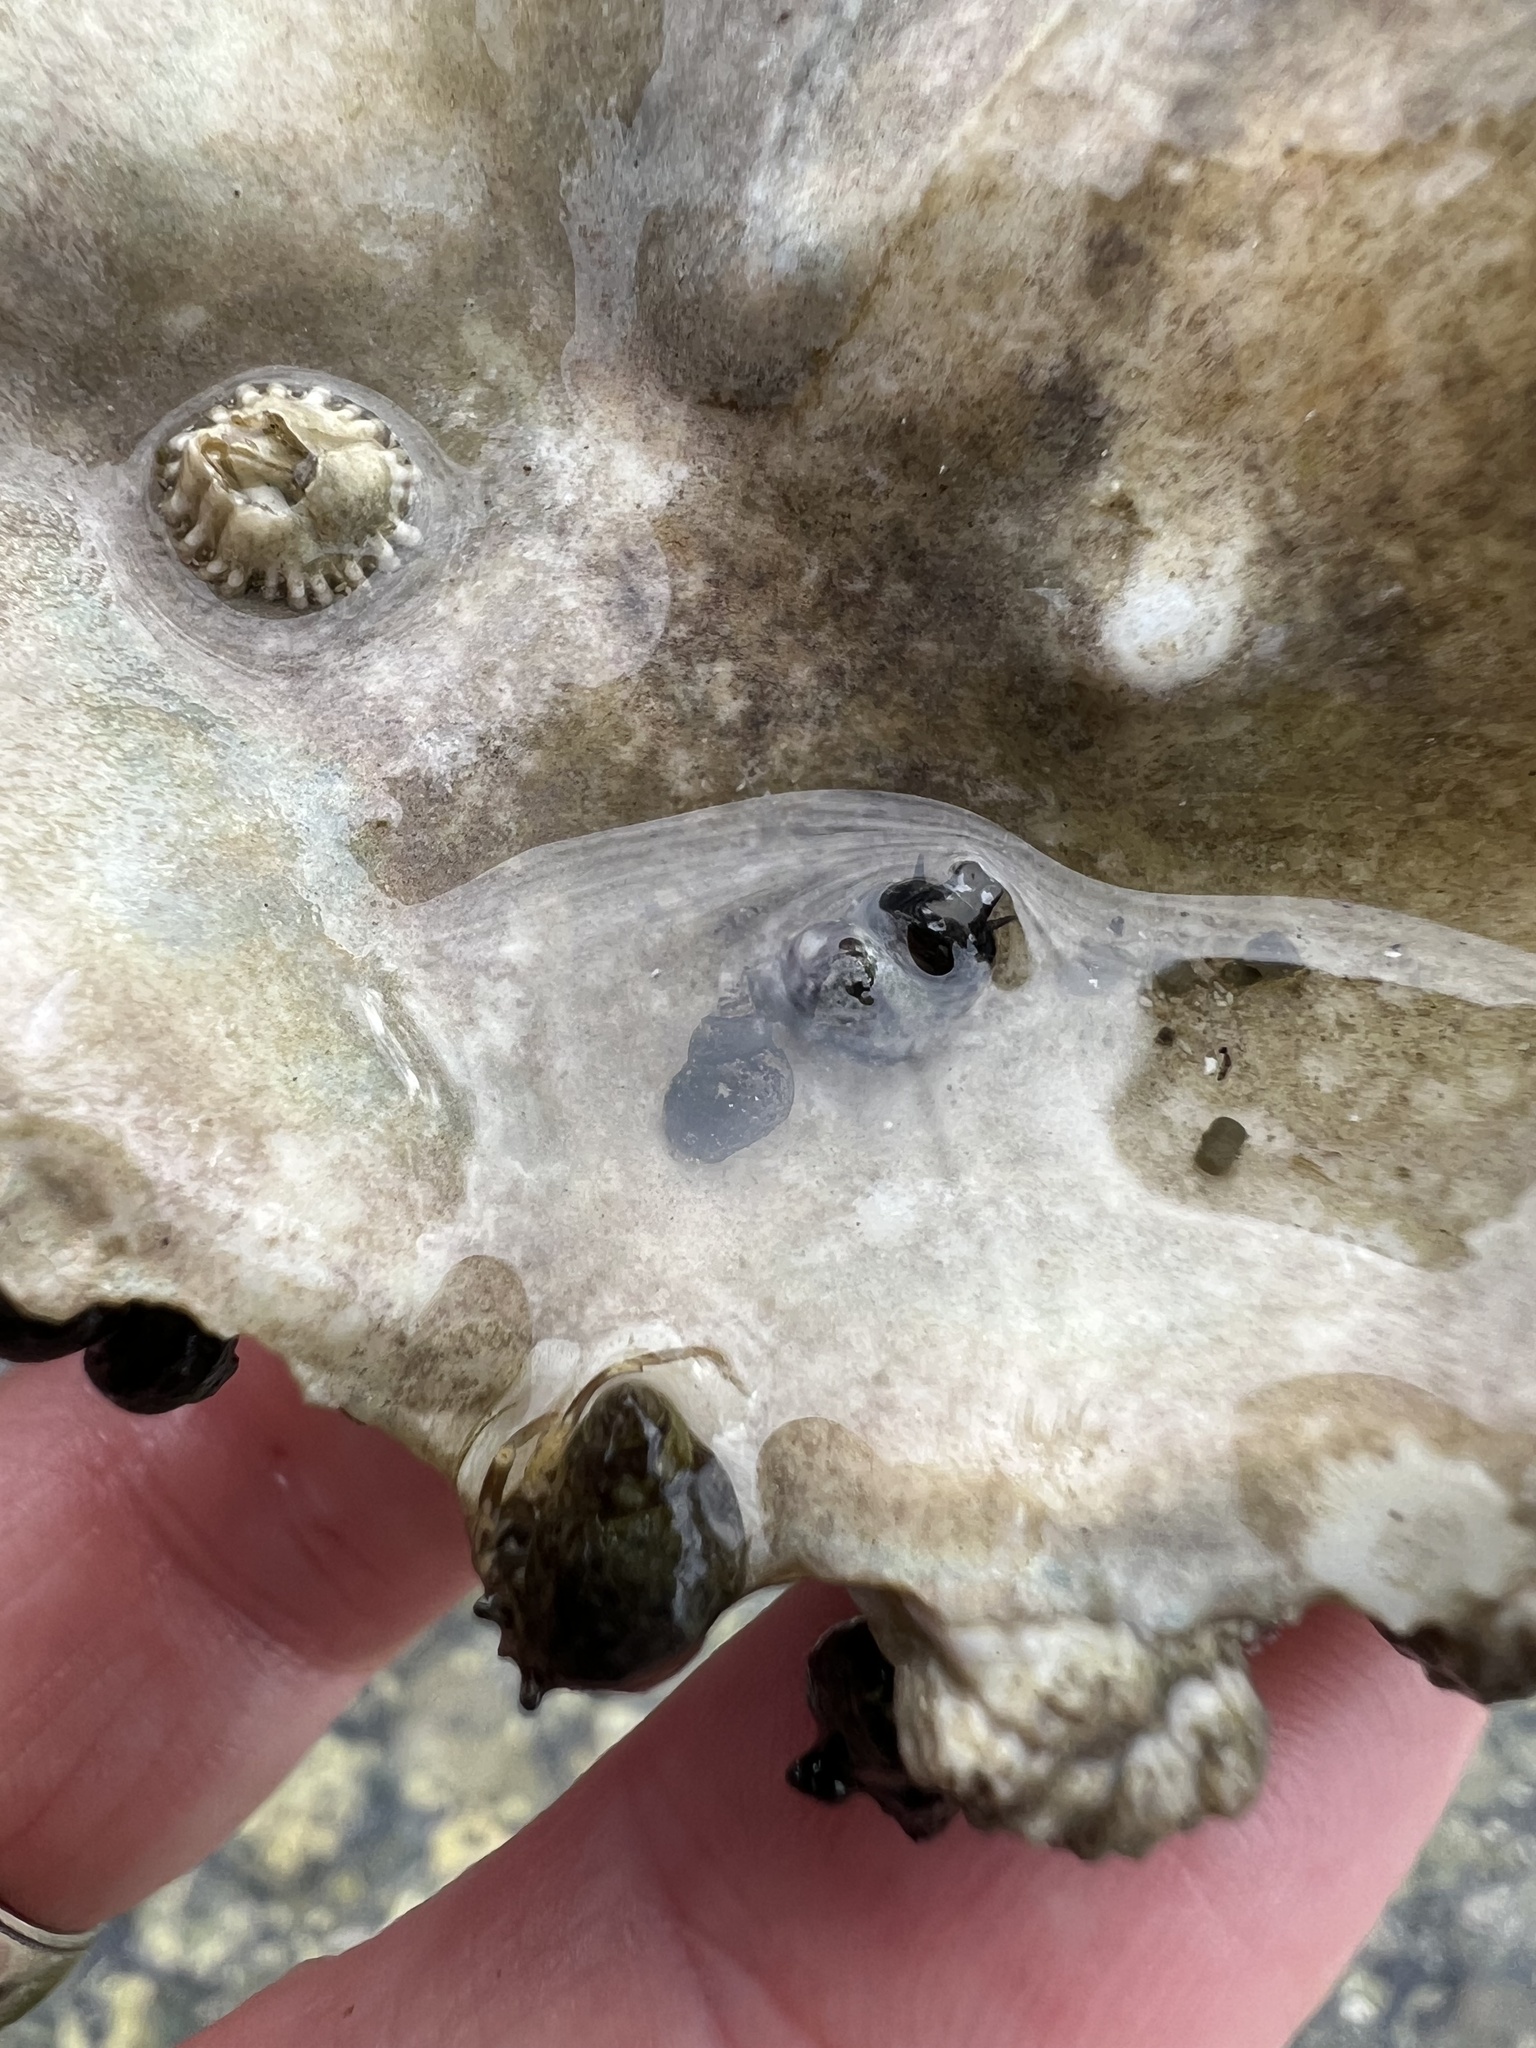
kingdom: Animalia
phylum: Arthropoda
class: Malacostraca
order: Decapoda
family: Paguridae
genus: Pagurus
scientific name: Pagurus hirsutiusculus
